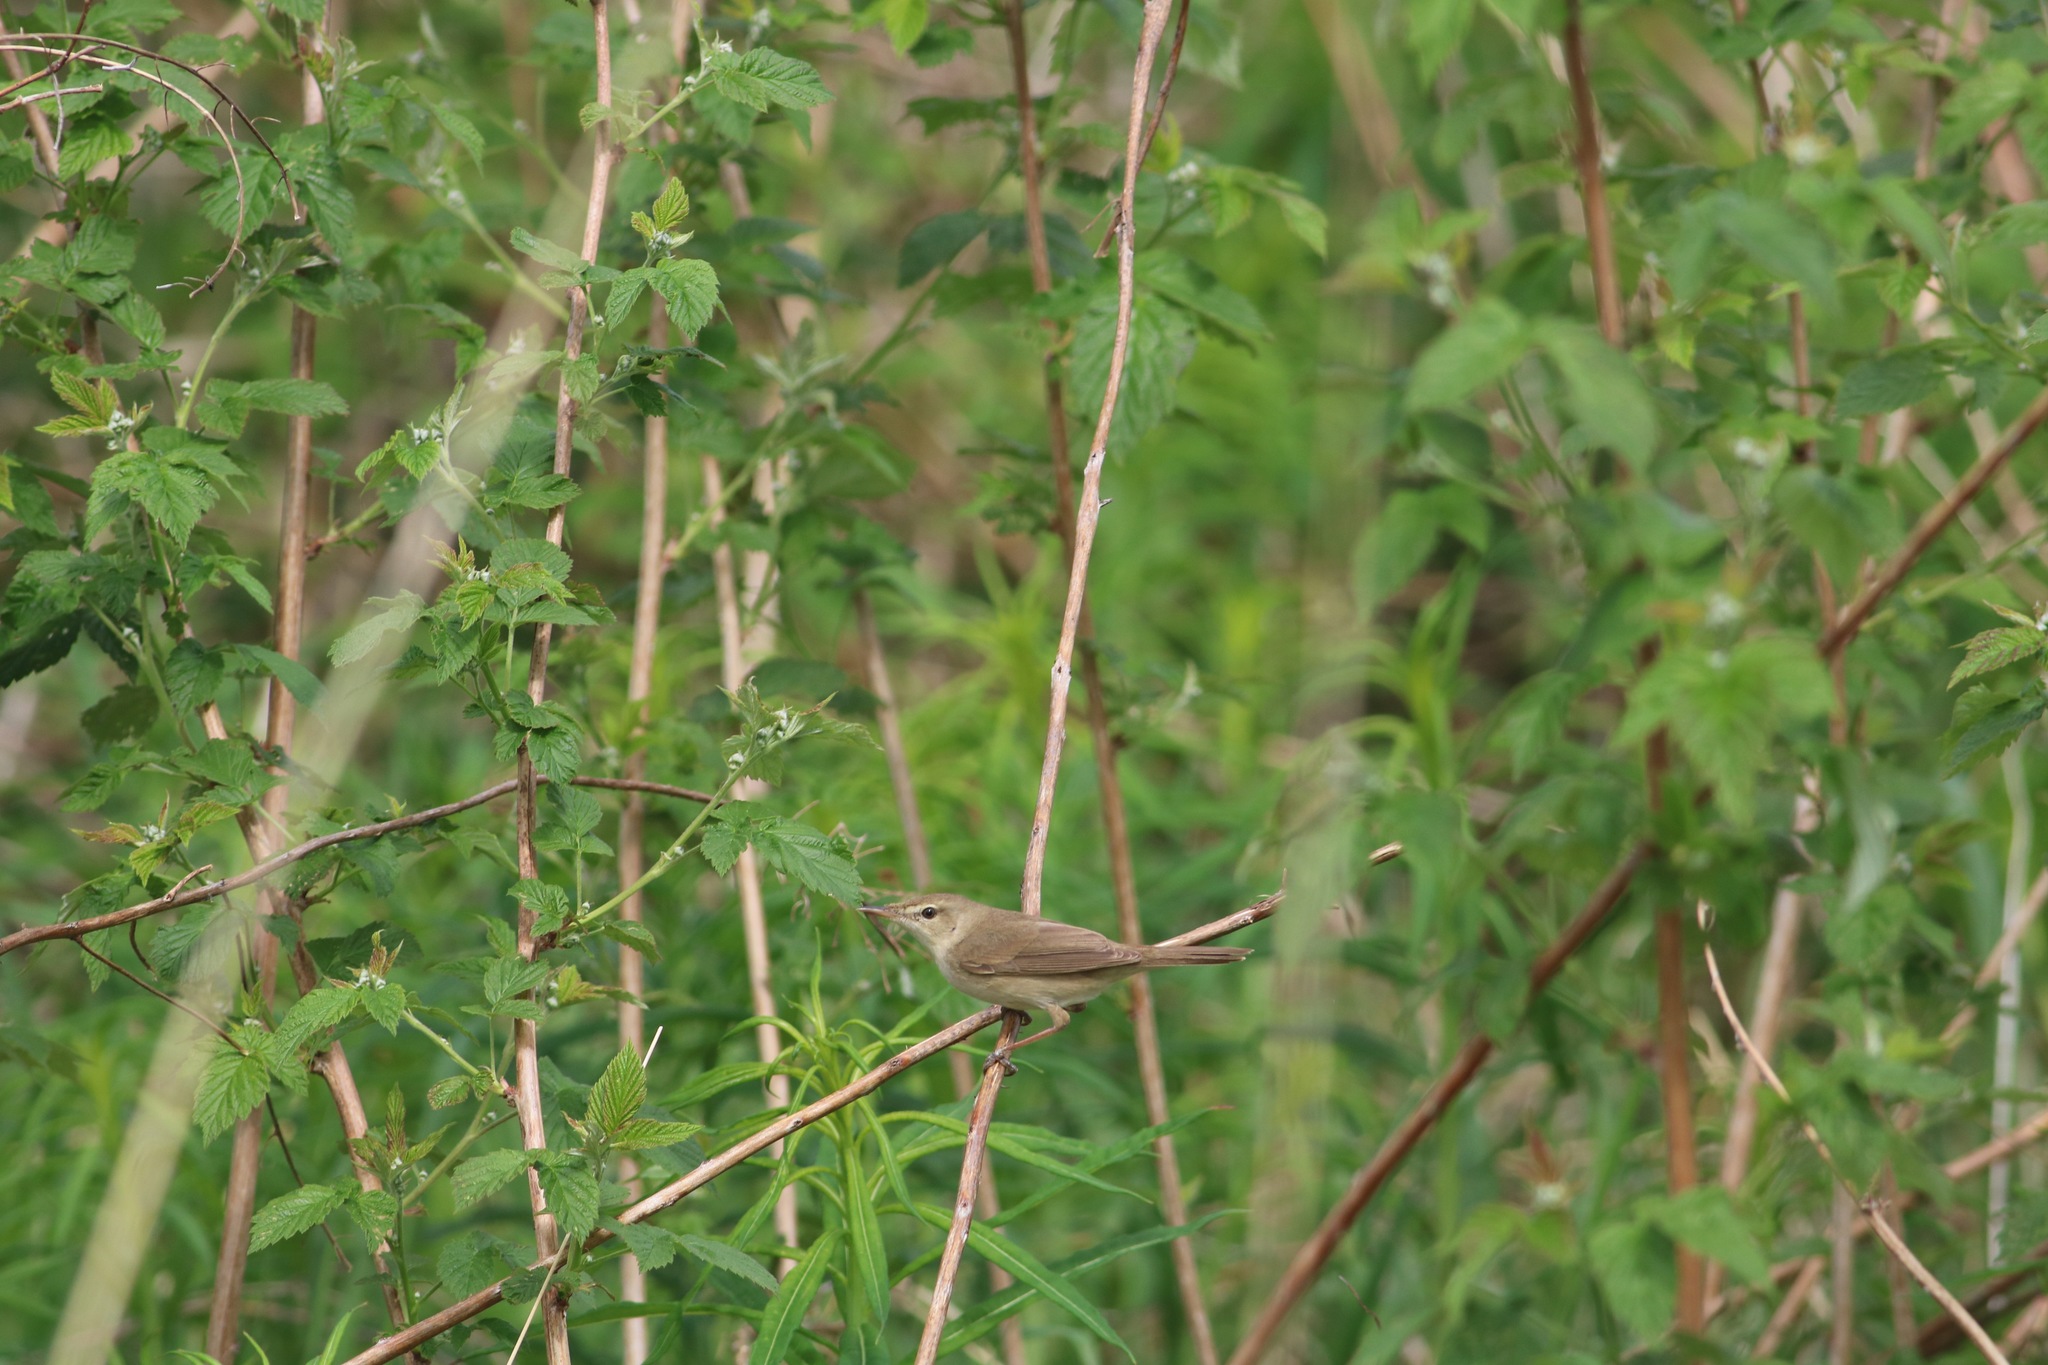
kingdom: Animalia
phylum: Chordata
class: Aves
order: Passeriformes
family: Acrocephalidae
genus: Acrocephalus
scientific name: Acrocephalus dumetorum
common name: Blyth's reed warbler
